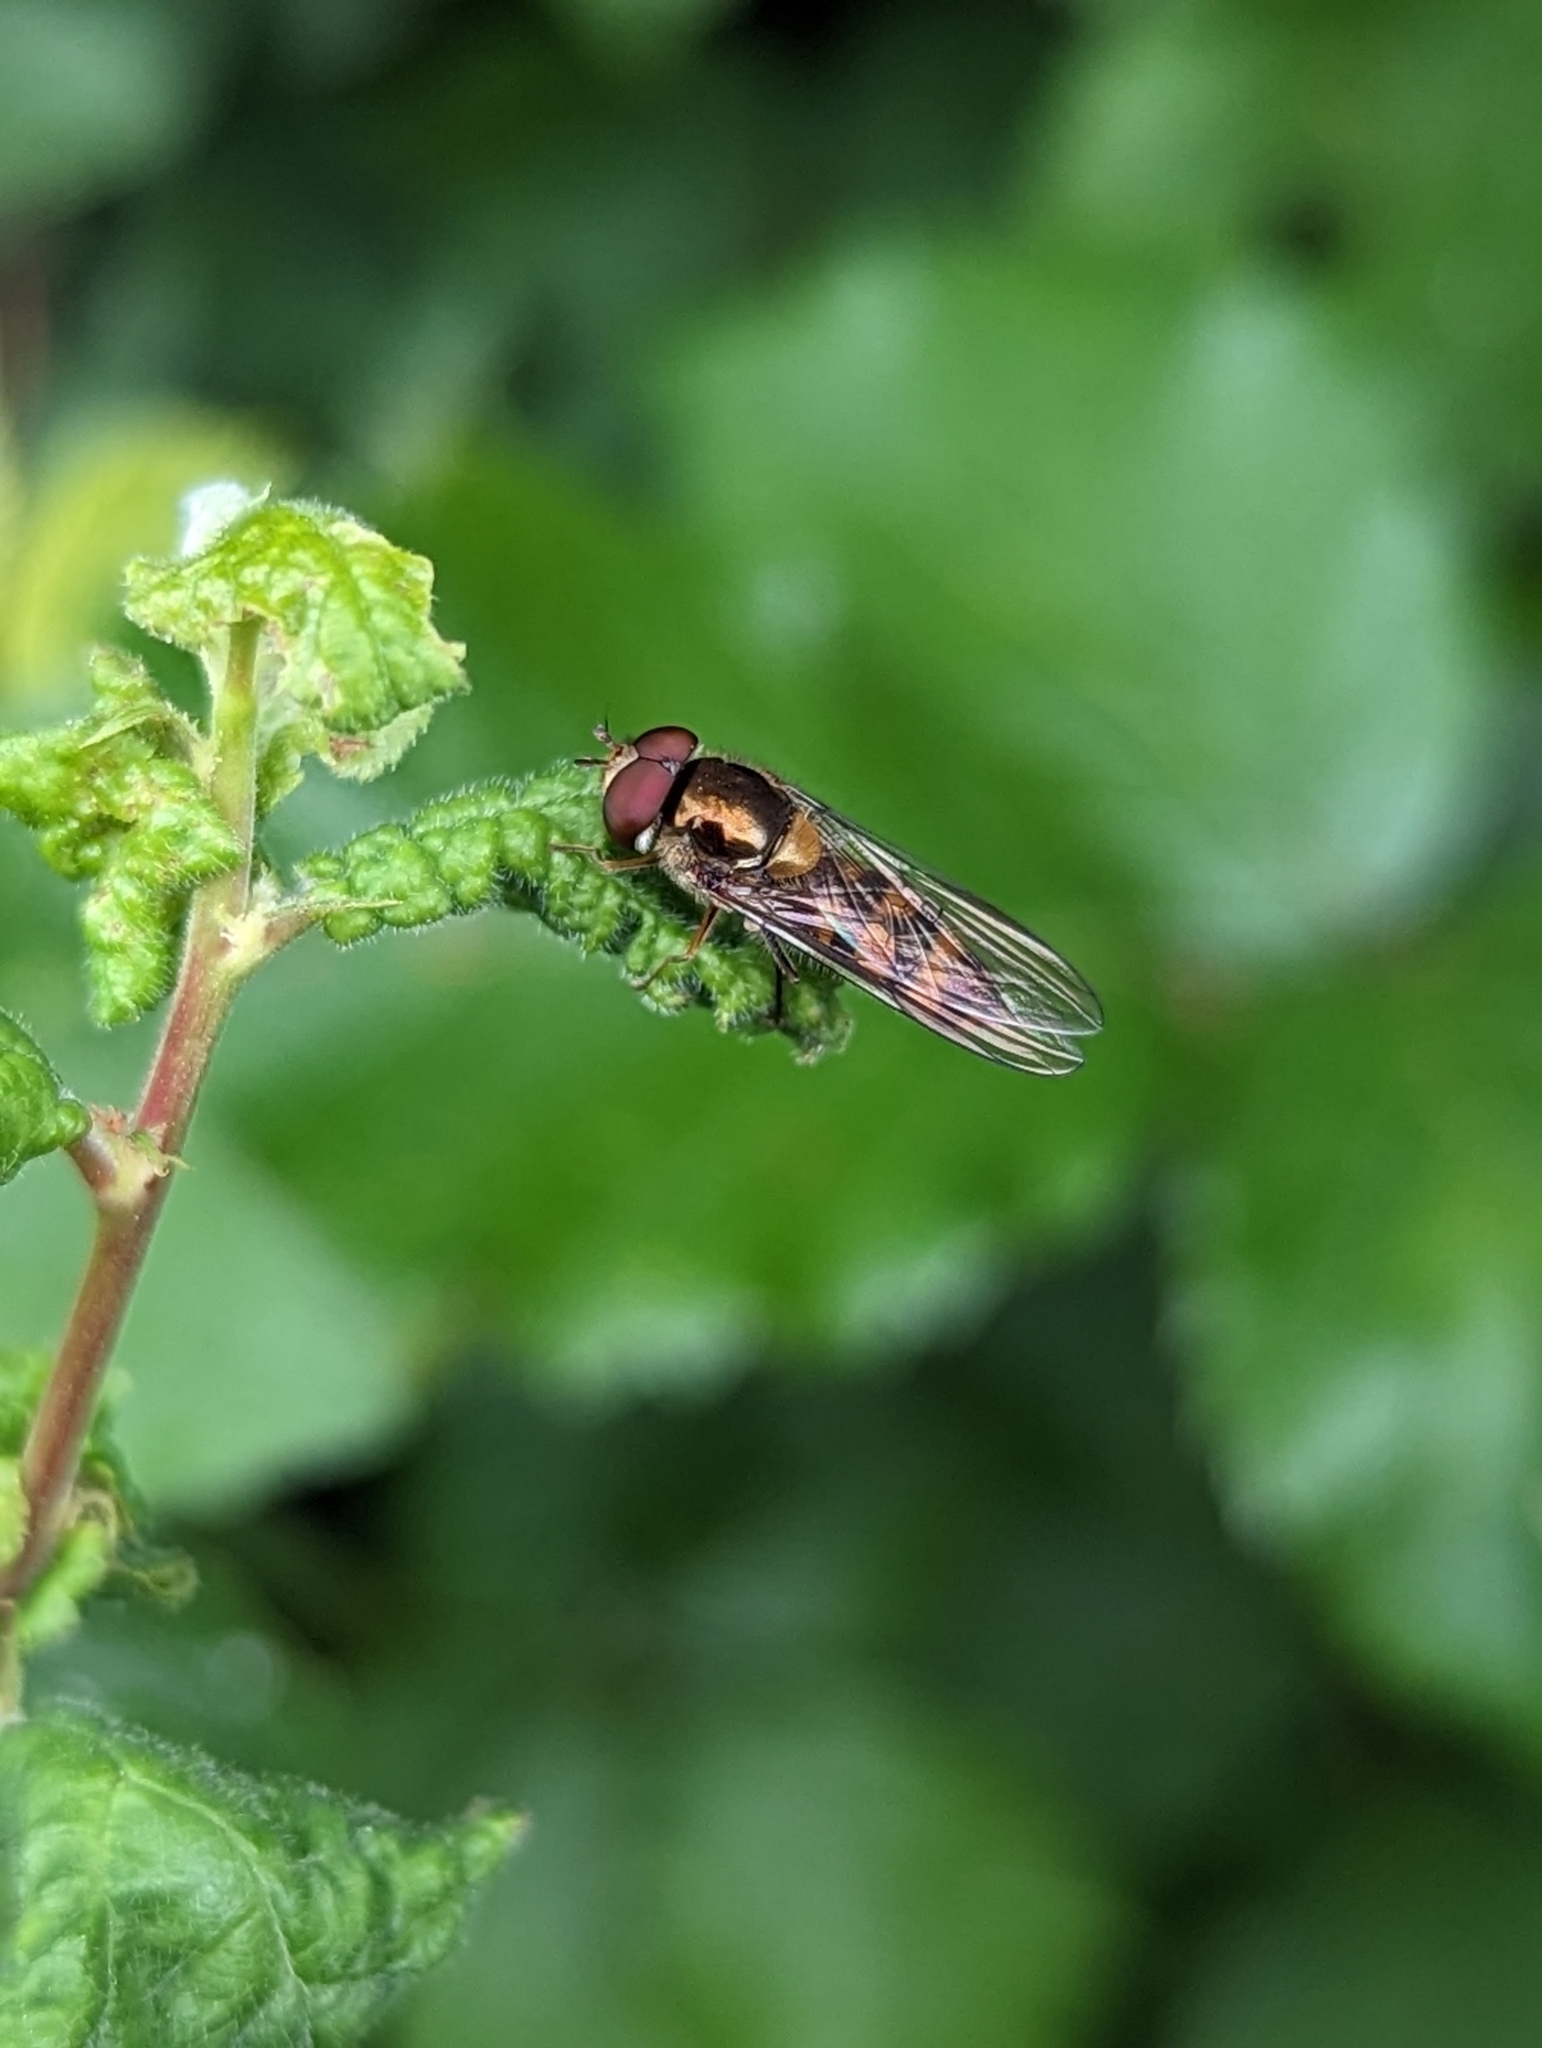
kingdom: Animalia
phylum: Arthropoda
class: Insecta
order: Diptera
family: Syrphidae
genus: Meliscaeva
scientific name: Meliscaeva auricollis
